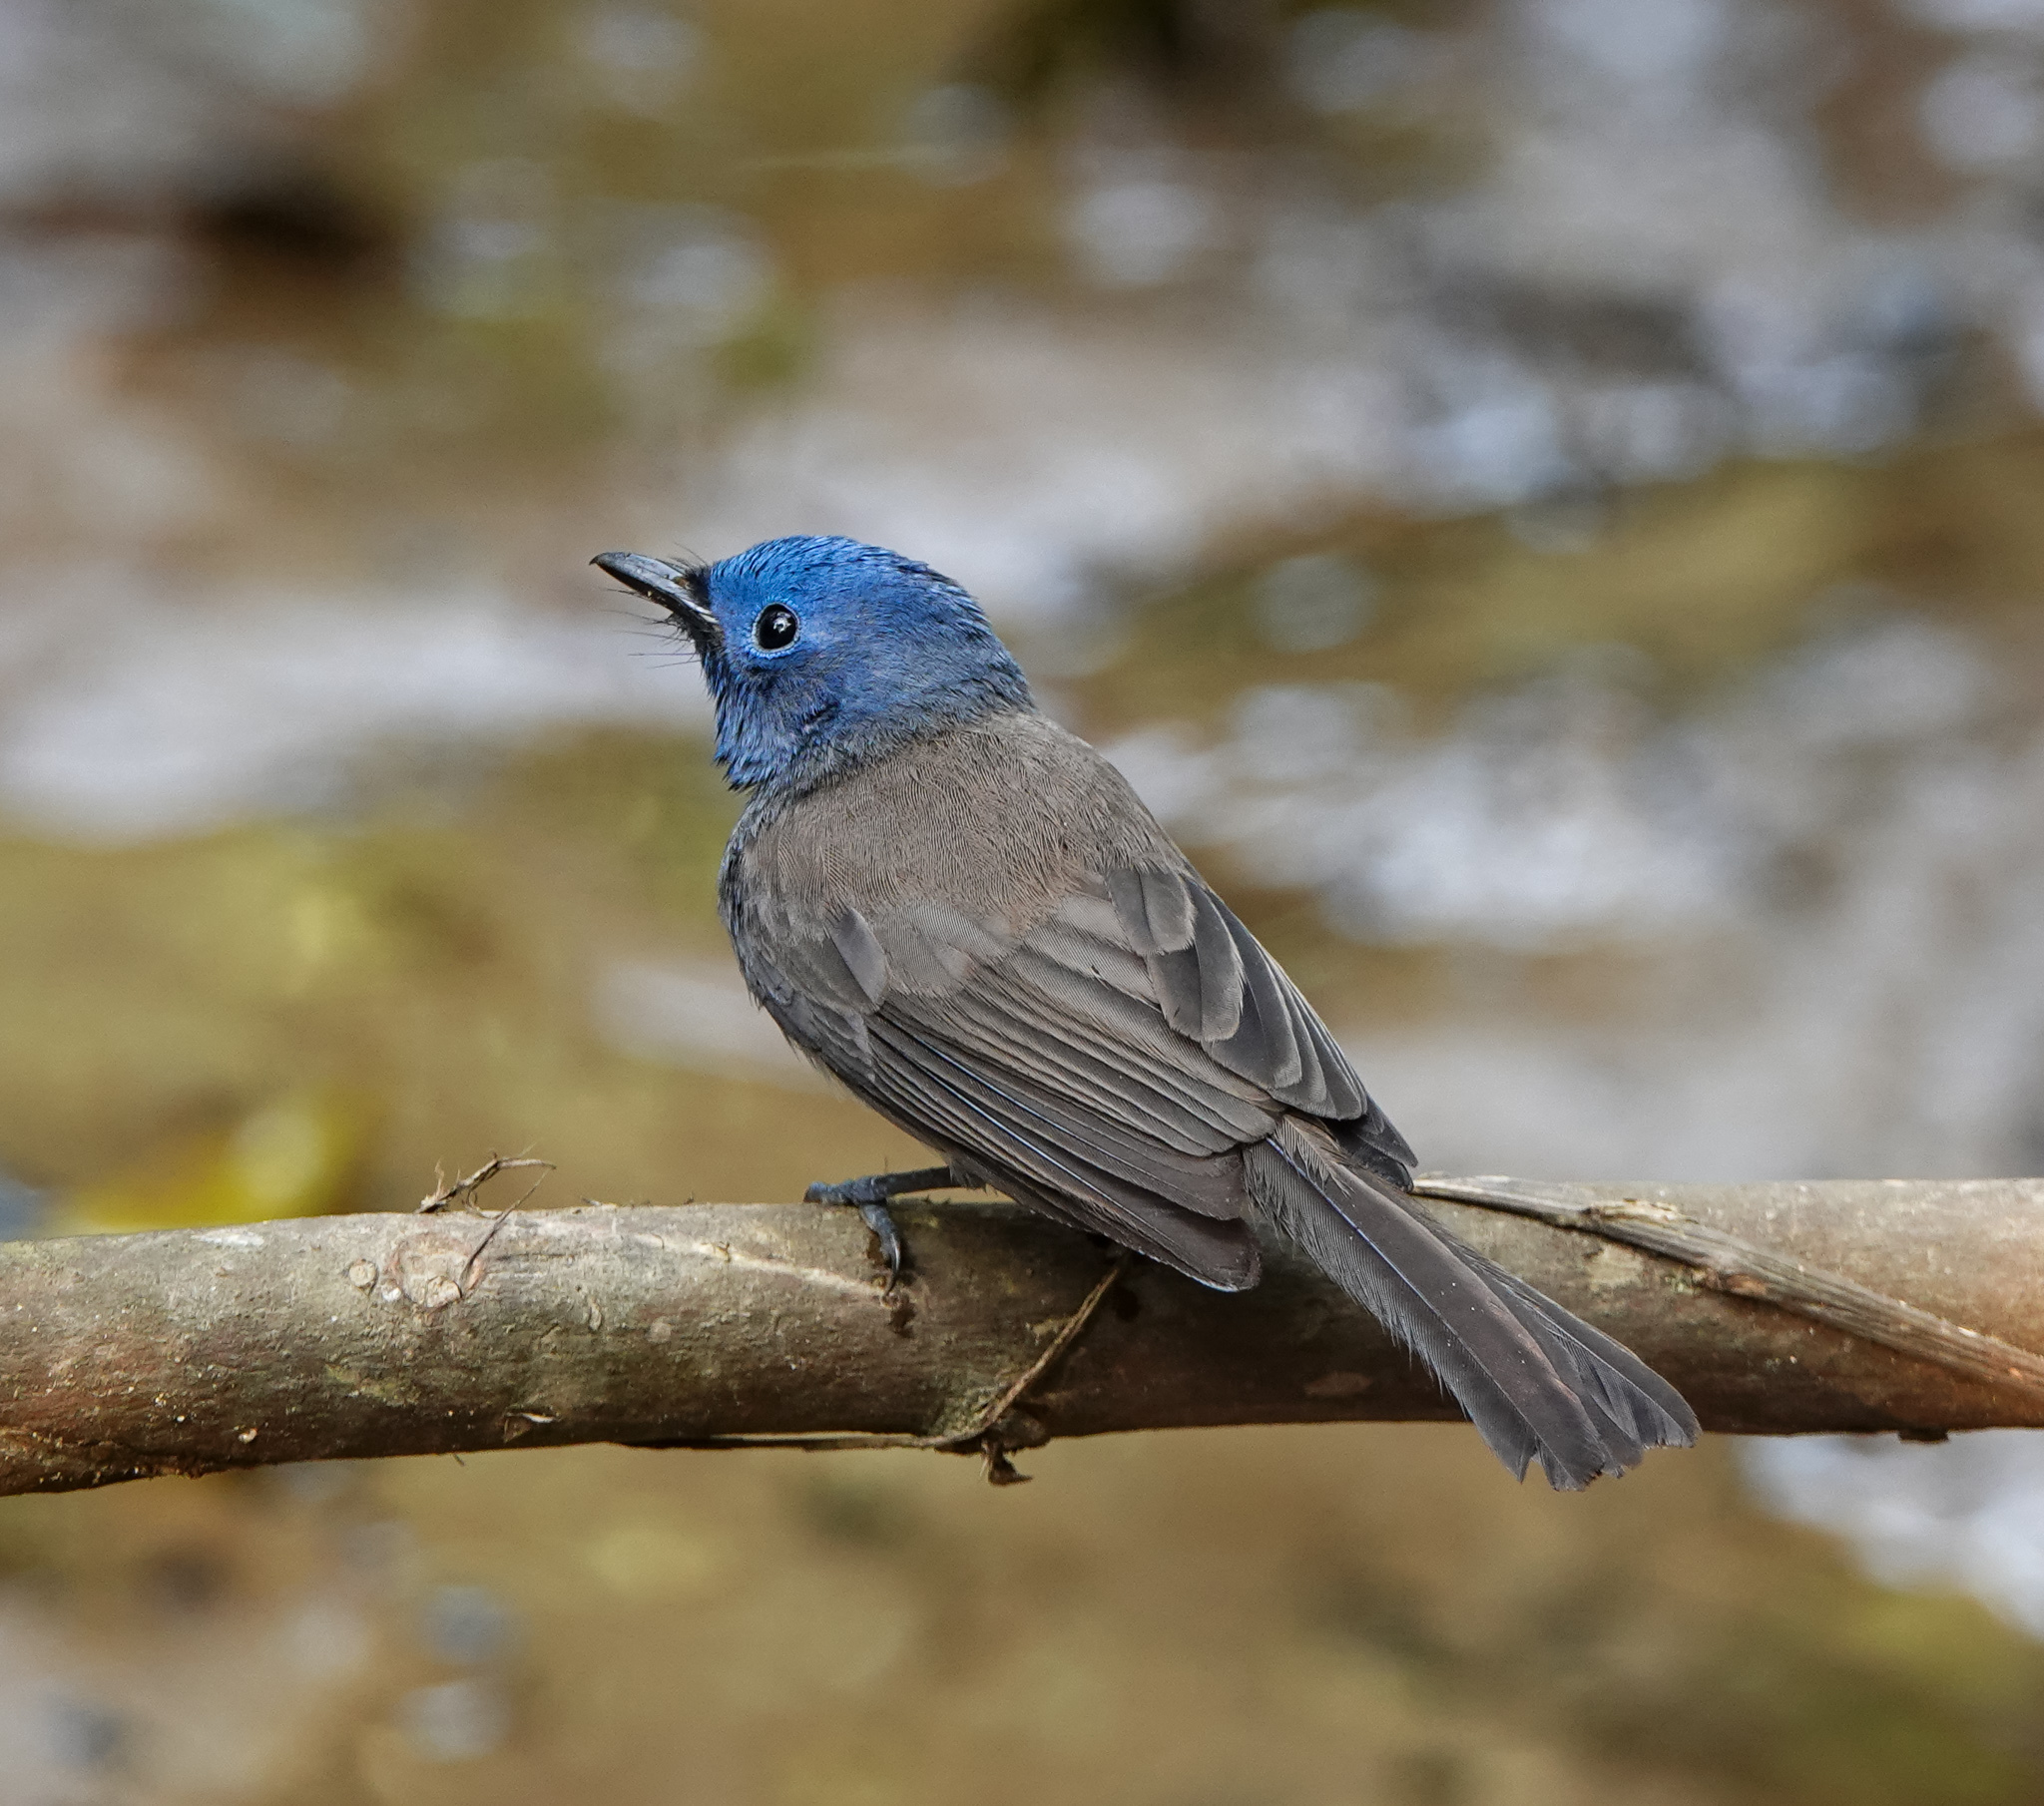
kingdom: Animalia
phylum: Chordata
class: Aves
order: Passeriformes
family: Monarchidae
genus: Hypothymis
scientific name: Hypothymis azurea
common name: Black-naped monarch
